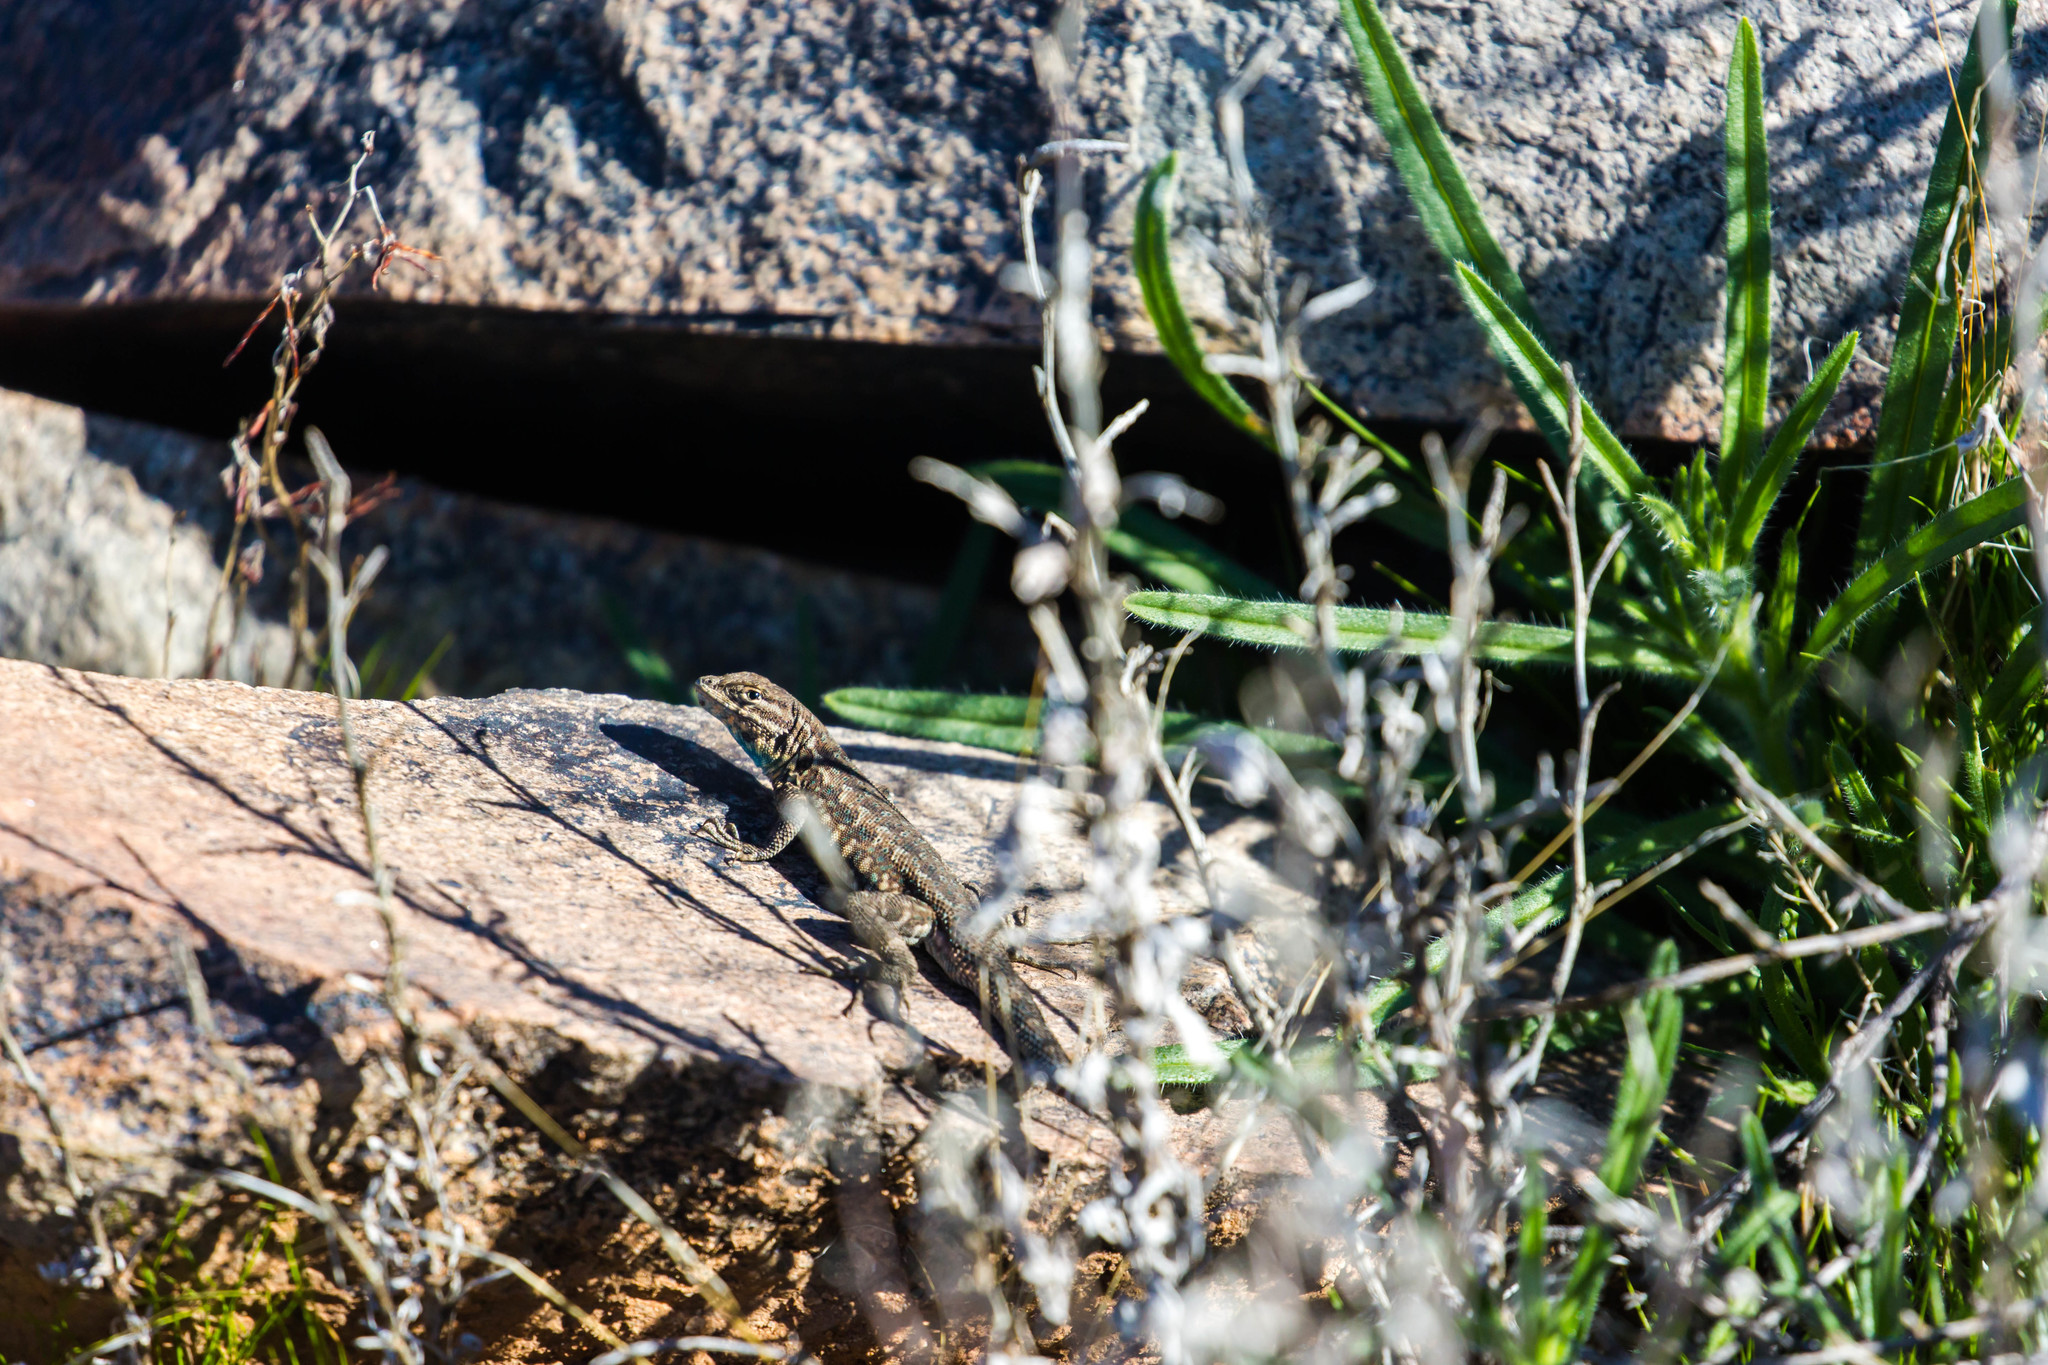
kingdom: Animalia
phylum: Chordata
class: Squamata
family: Phrynosomatidae
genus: Uta
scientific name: Uta stansburiana
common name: Side-blotched lizard
